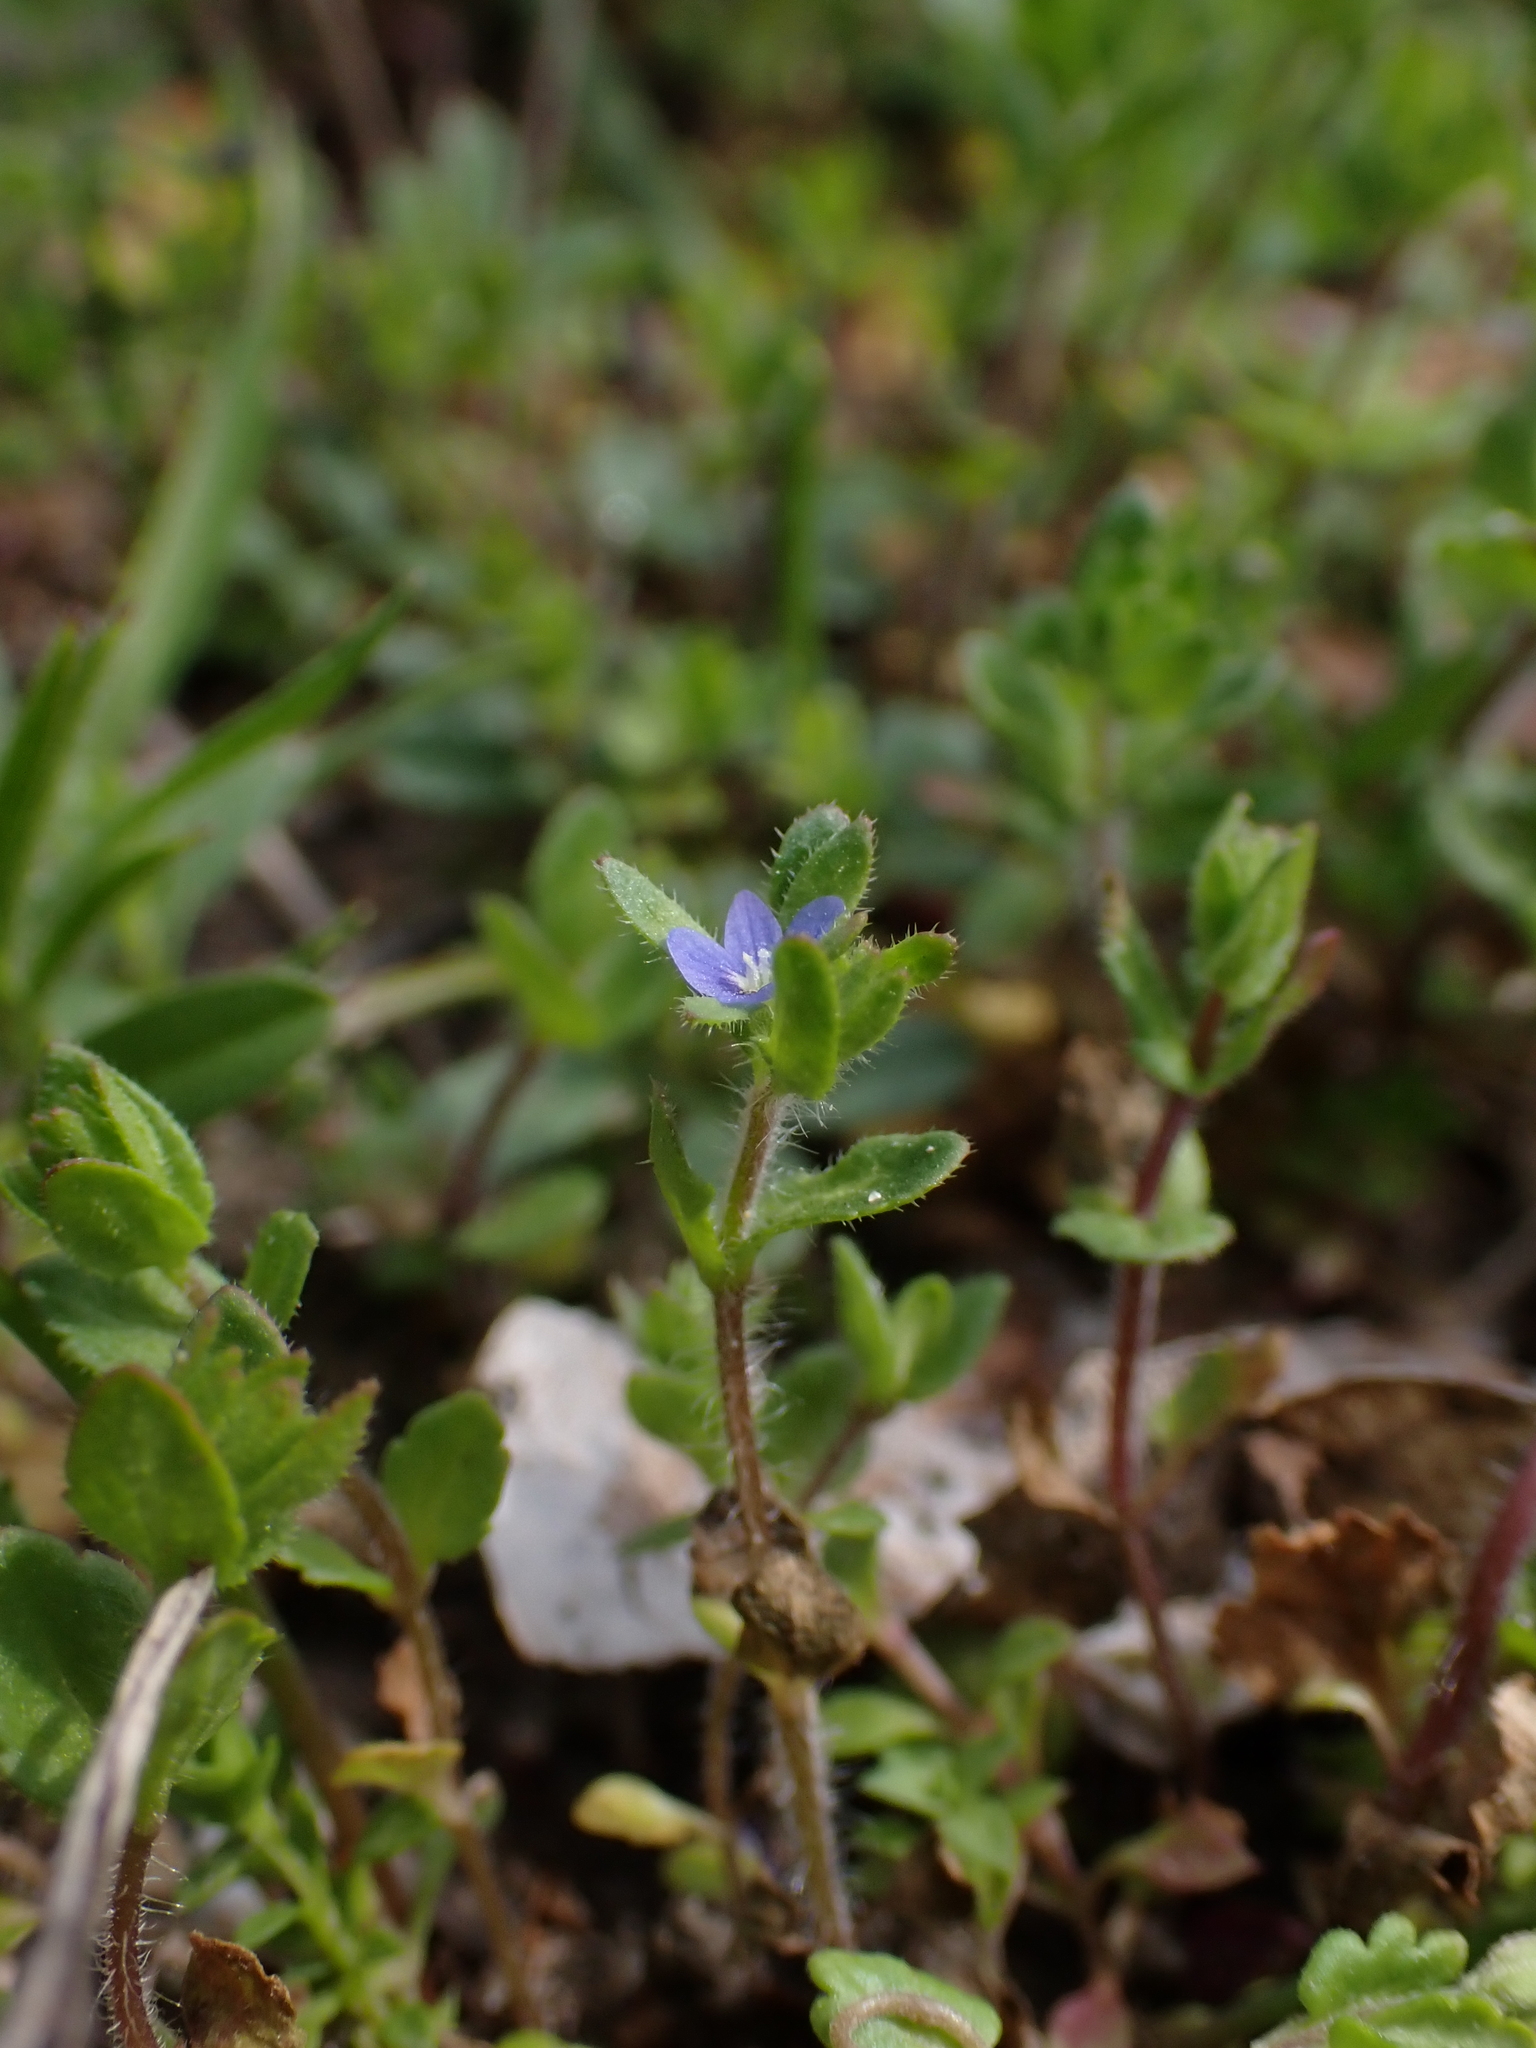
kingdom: Plantae
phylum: Tracheophyta
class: Magnoliopsida
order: Lamiales
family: Plantaginaceae
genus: Veronica
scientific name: Veronica arvensis
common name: Corn speedwell
